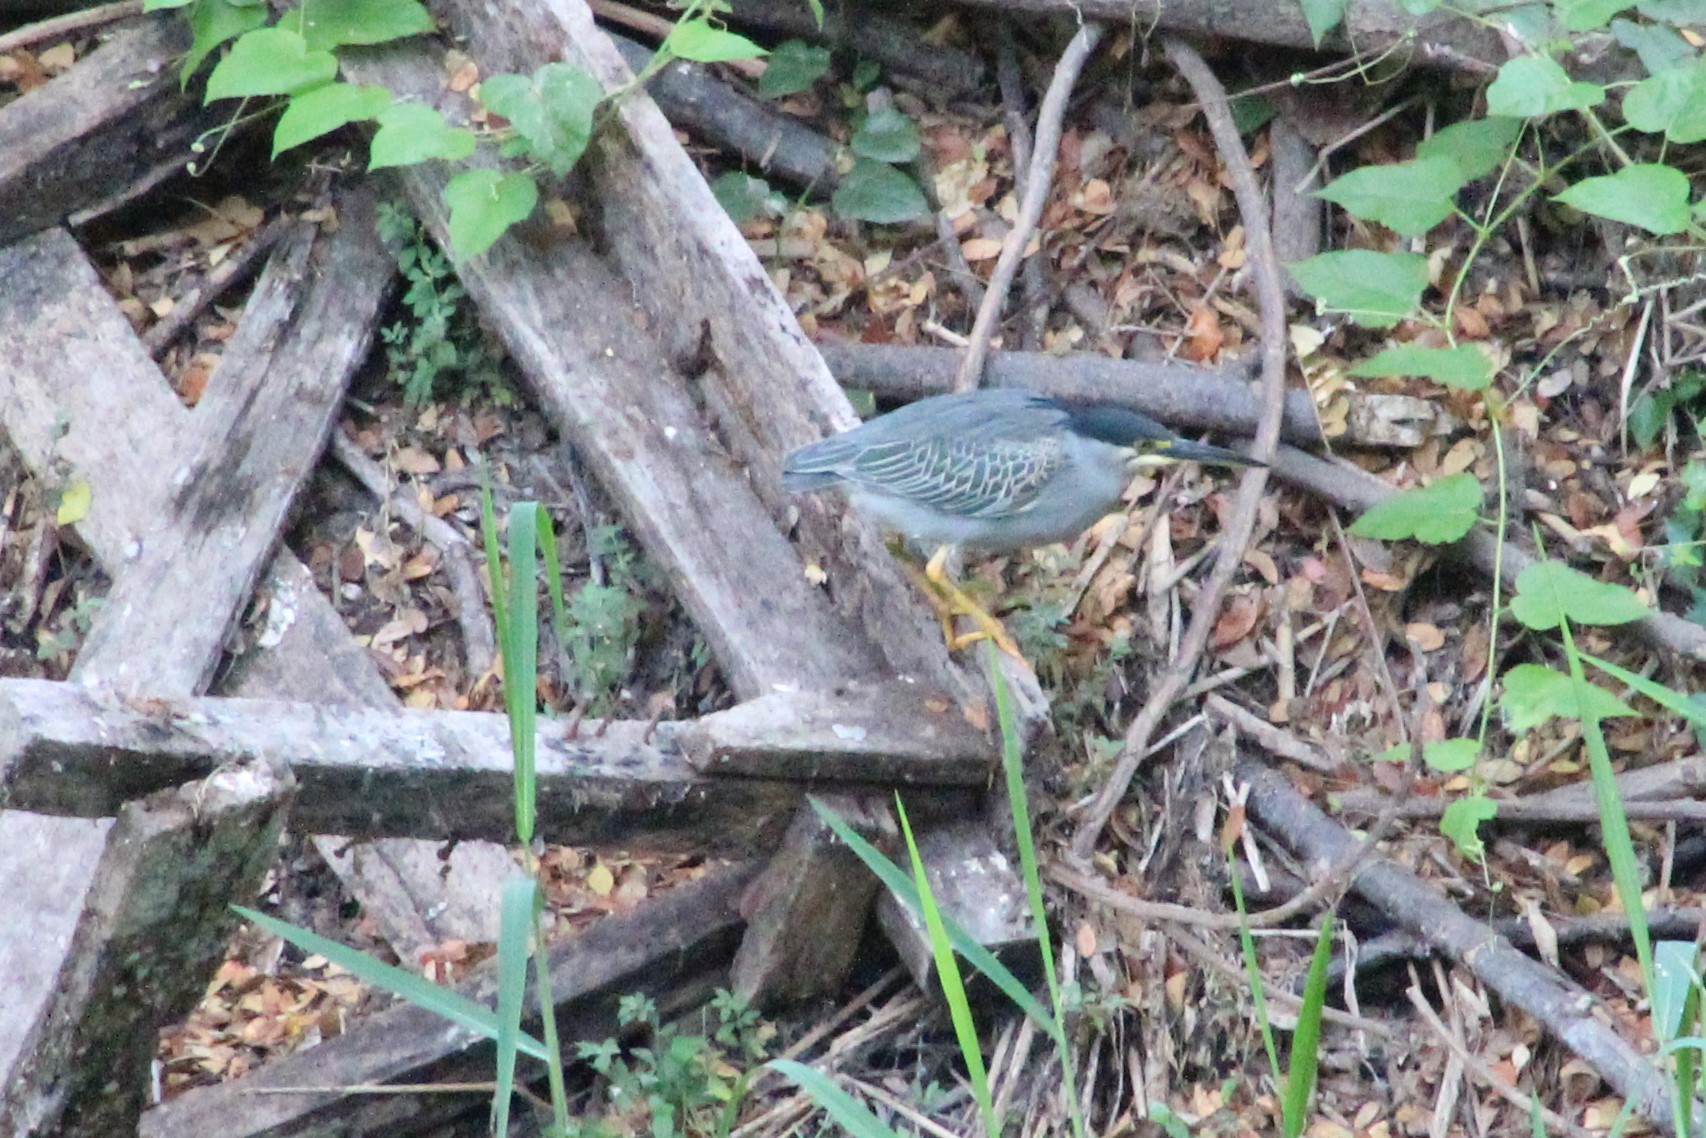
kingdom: Animalia
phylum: Chordata
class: Aves
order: Pelecaniformes
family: Ardeidae
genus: Butorides
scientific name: Butorides striata
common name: Striated heron
